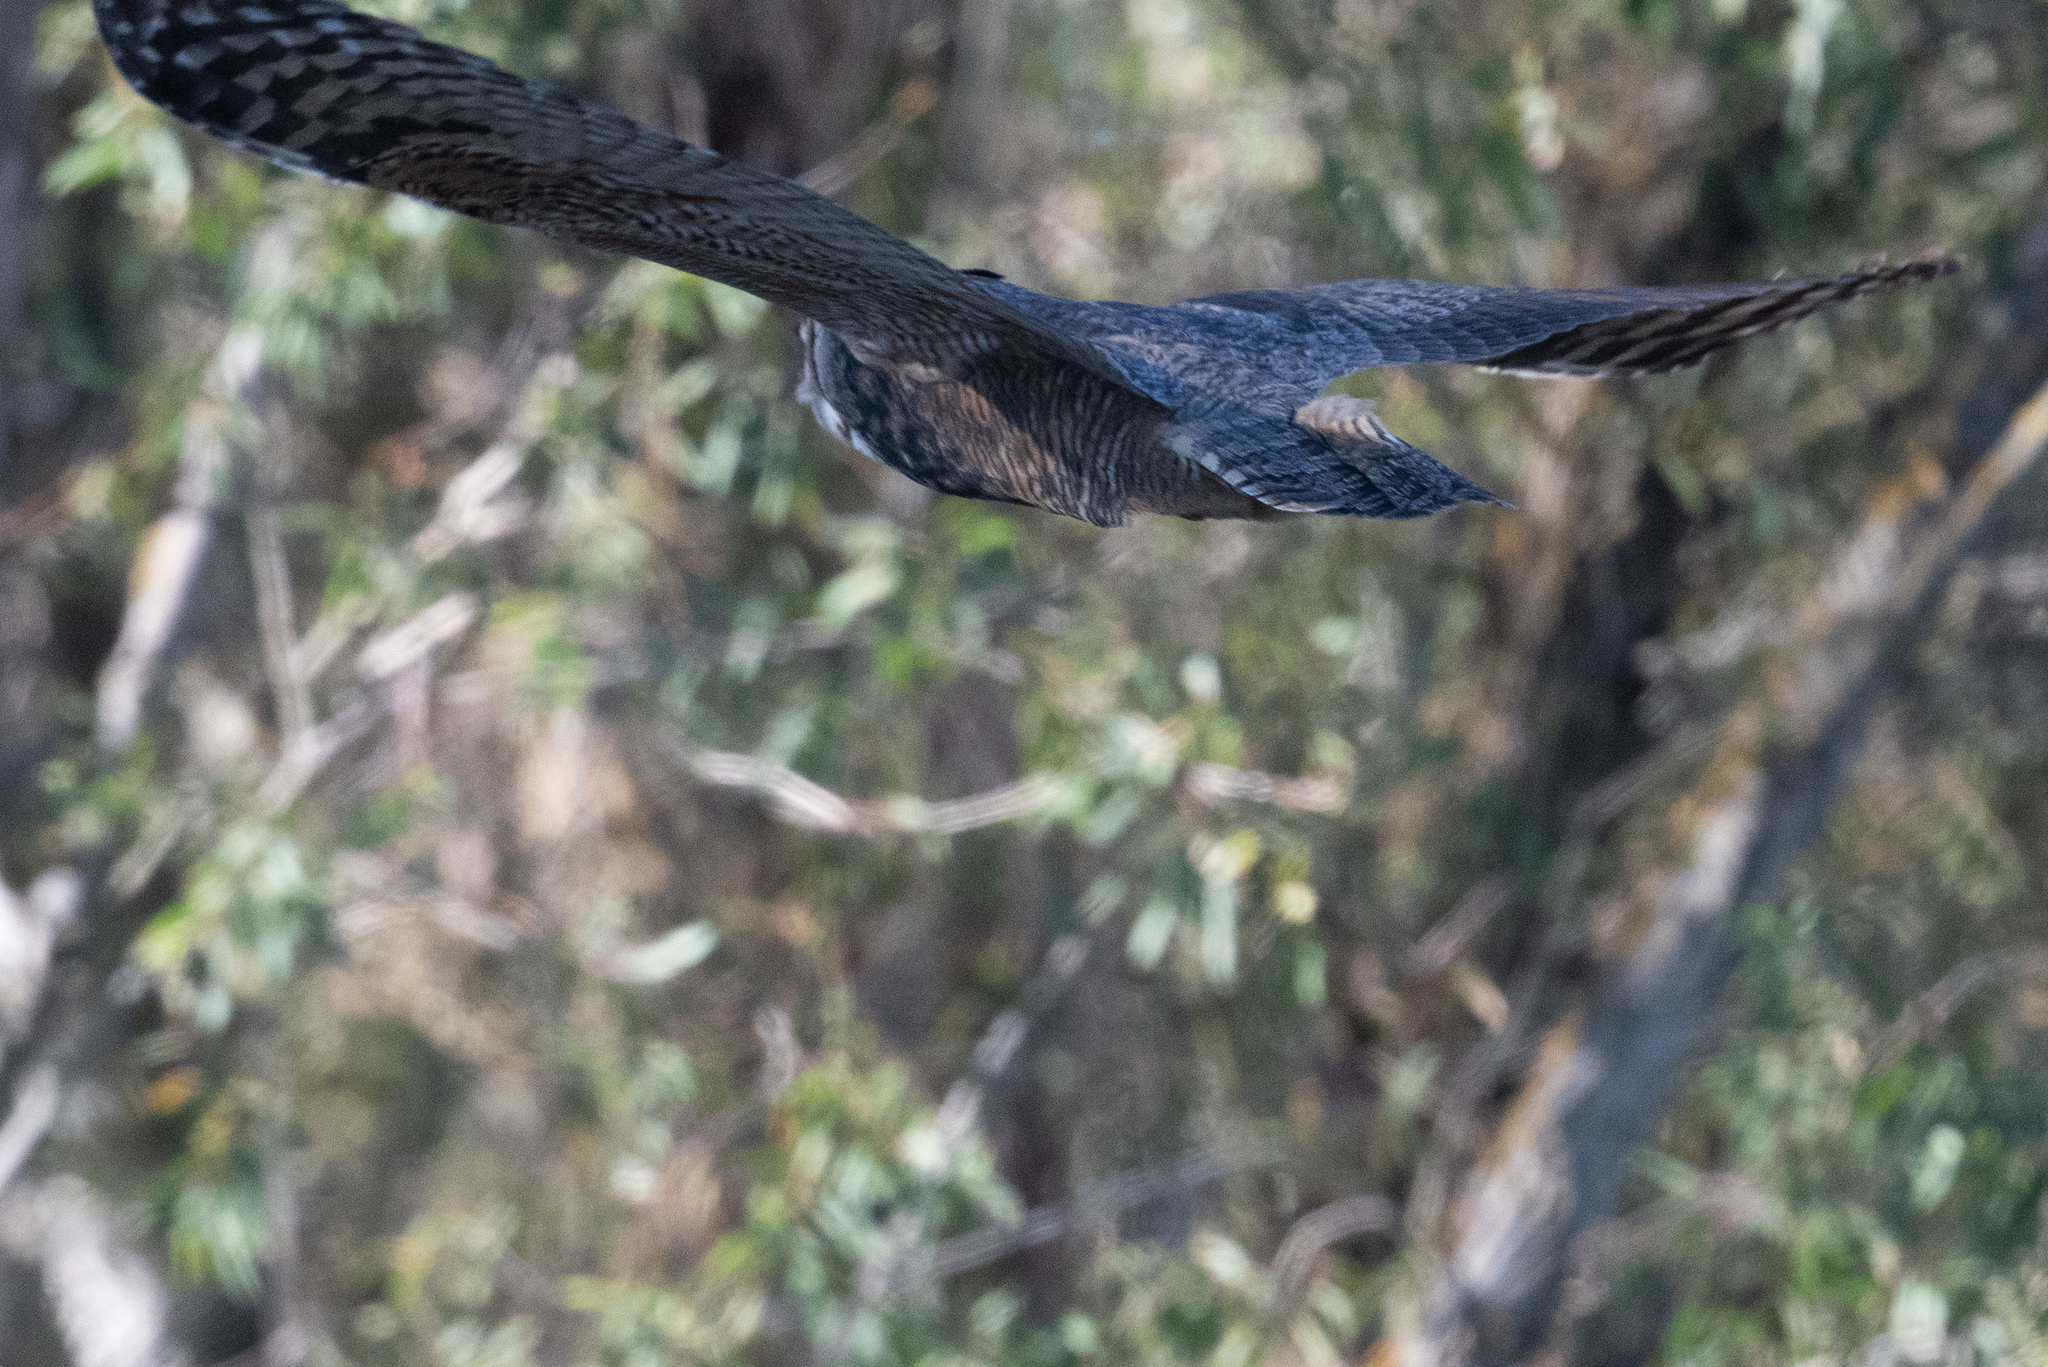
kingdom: Animalia
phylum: Chordata
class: Aves
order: Strigiformes
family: Strigidae
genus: Bubo
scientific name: Bubo virginianus
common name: Great horned owl
